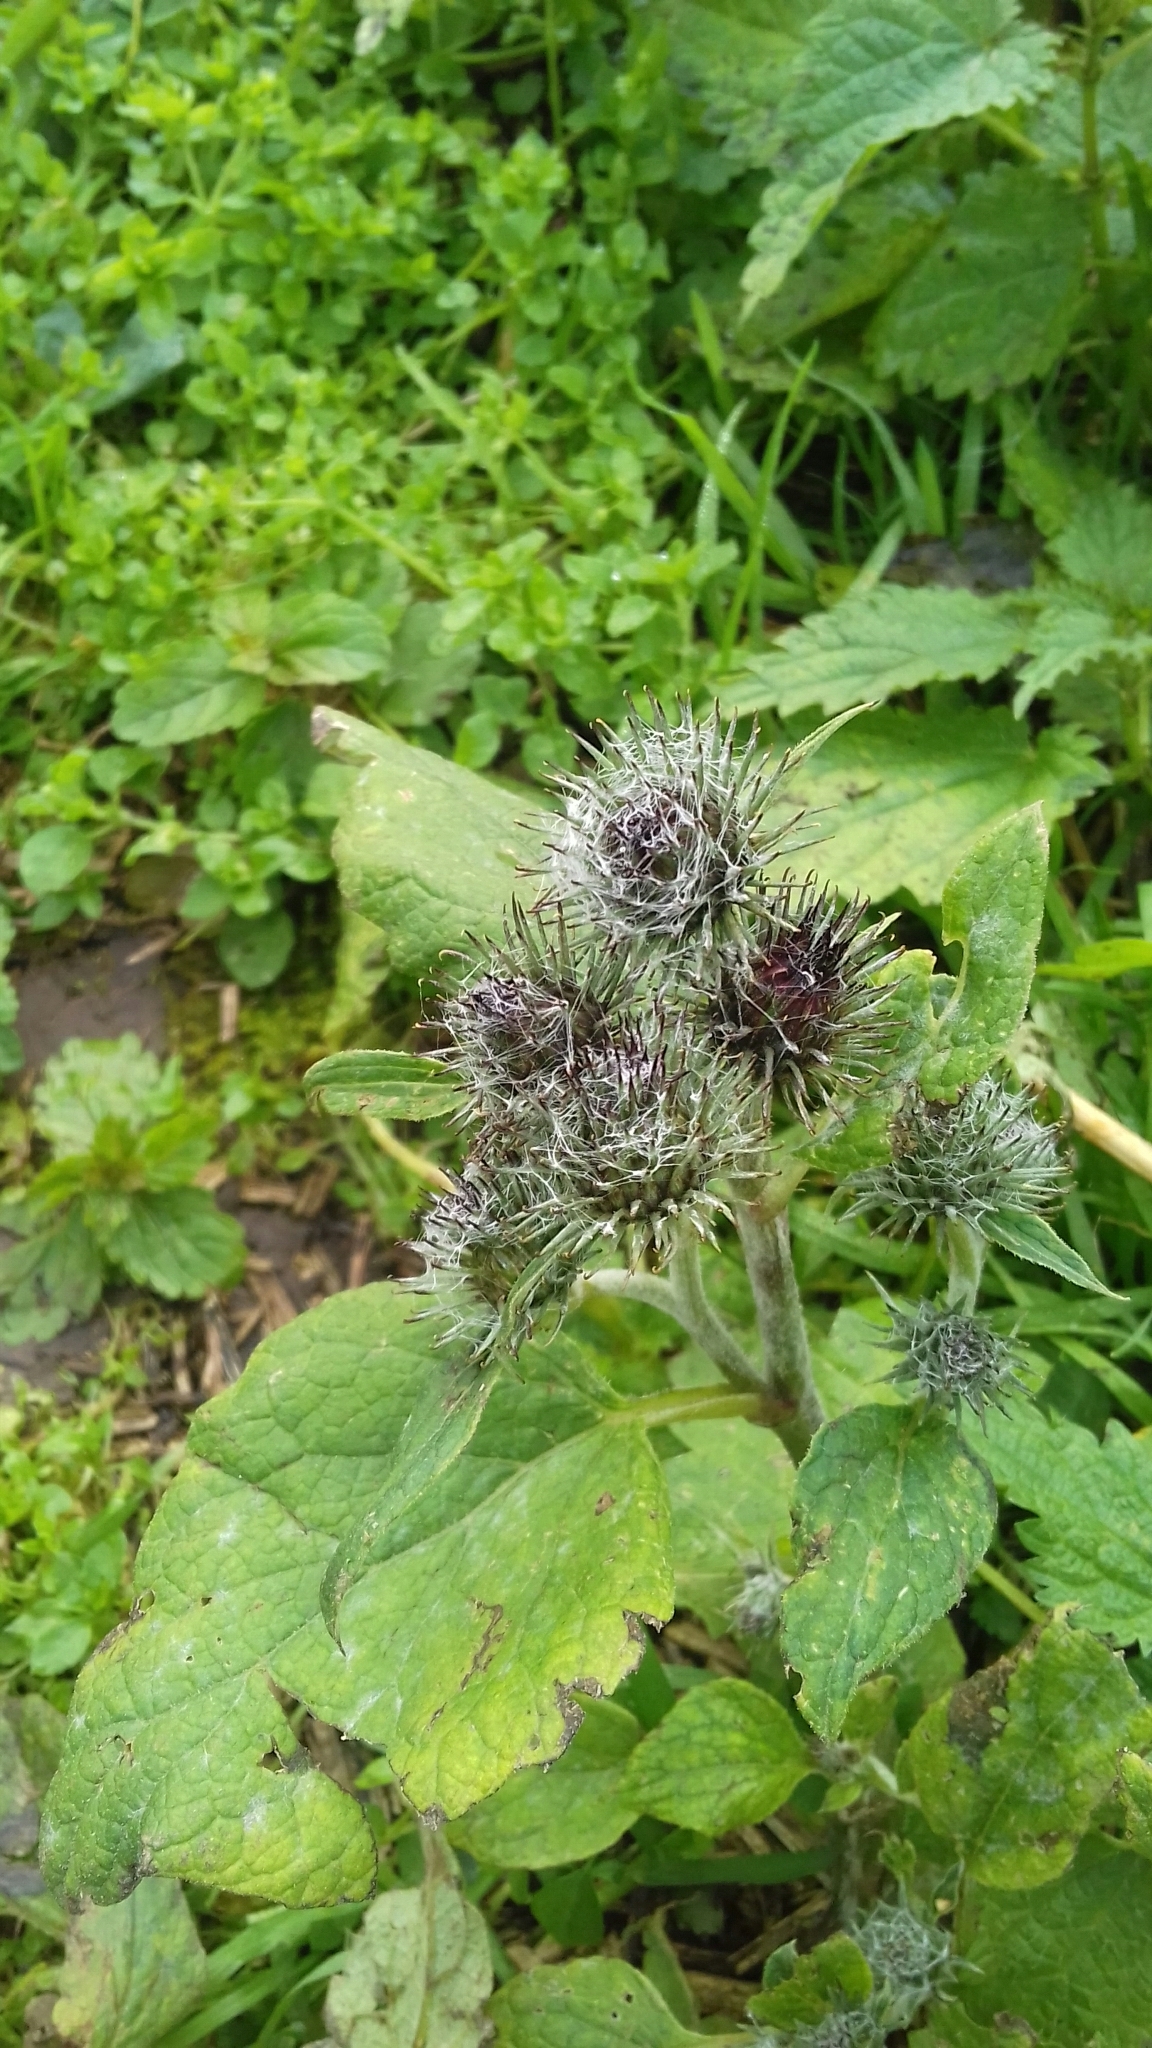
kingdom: Plantae
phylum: Tracheophyta
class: Magnoliopsida
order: Asterales
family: Asteraceae
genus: Arctium
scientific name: Arctium tomentosum
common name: Woolly burdock
